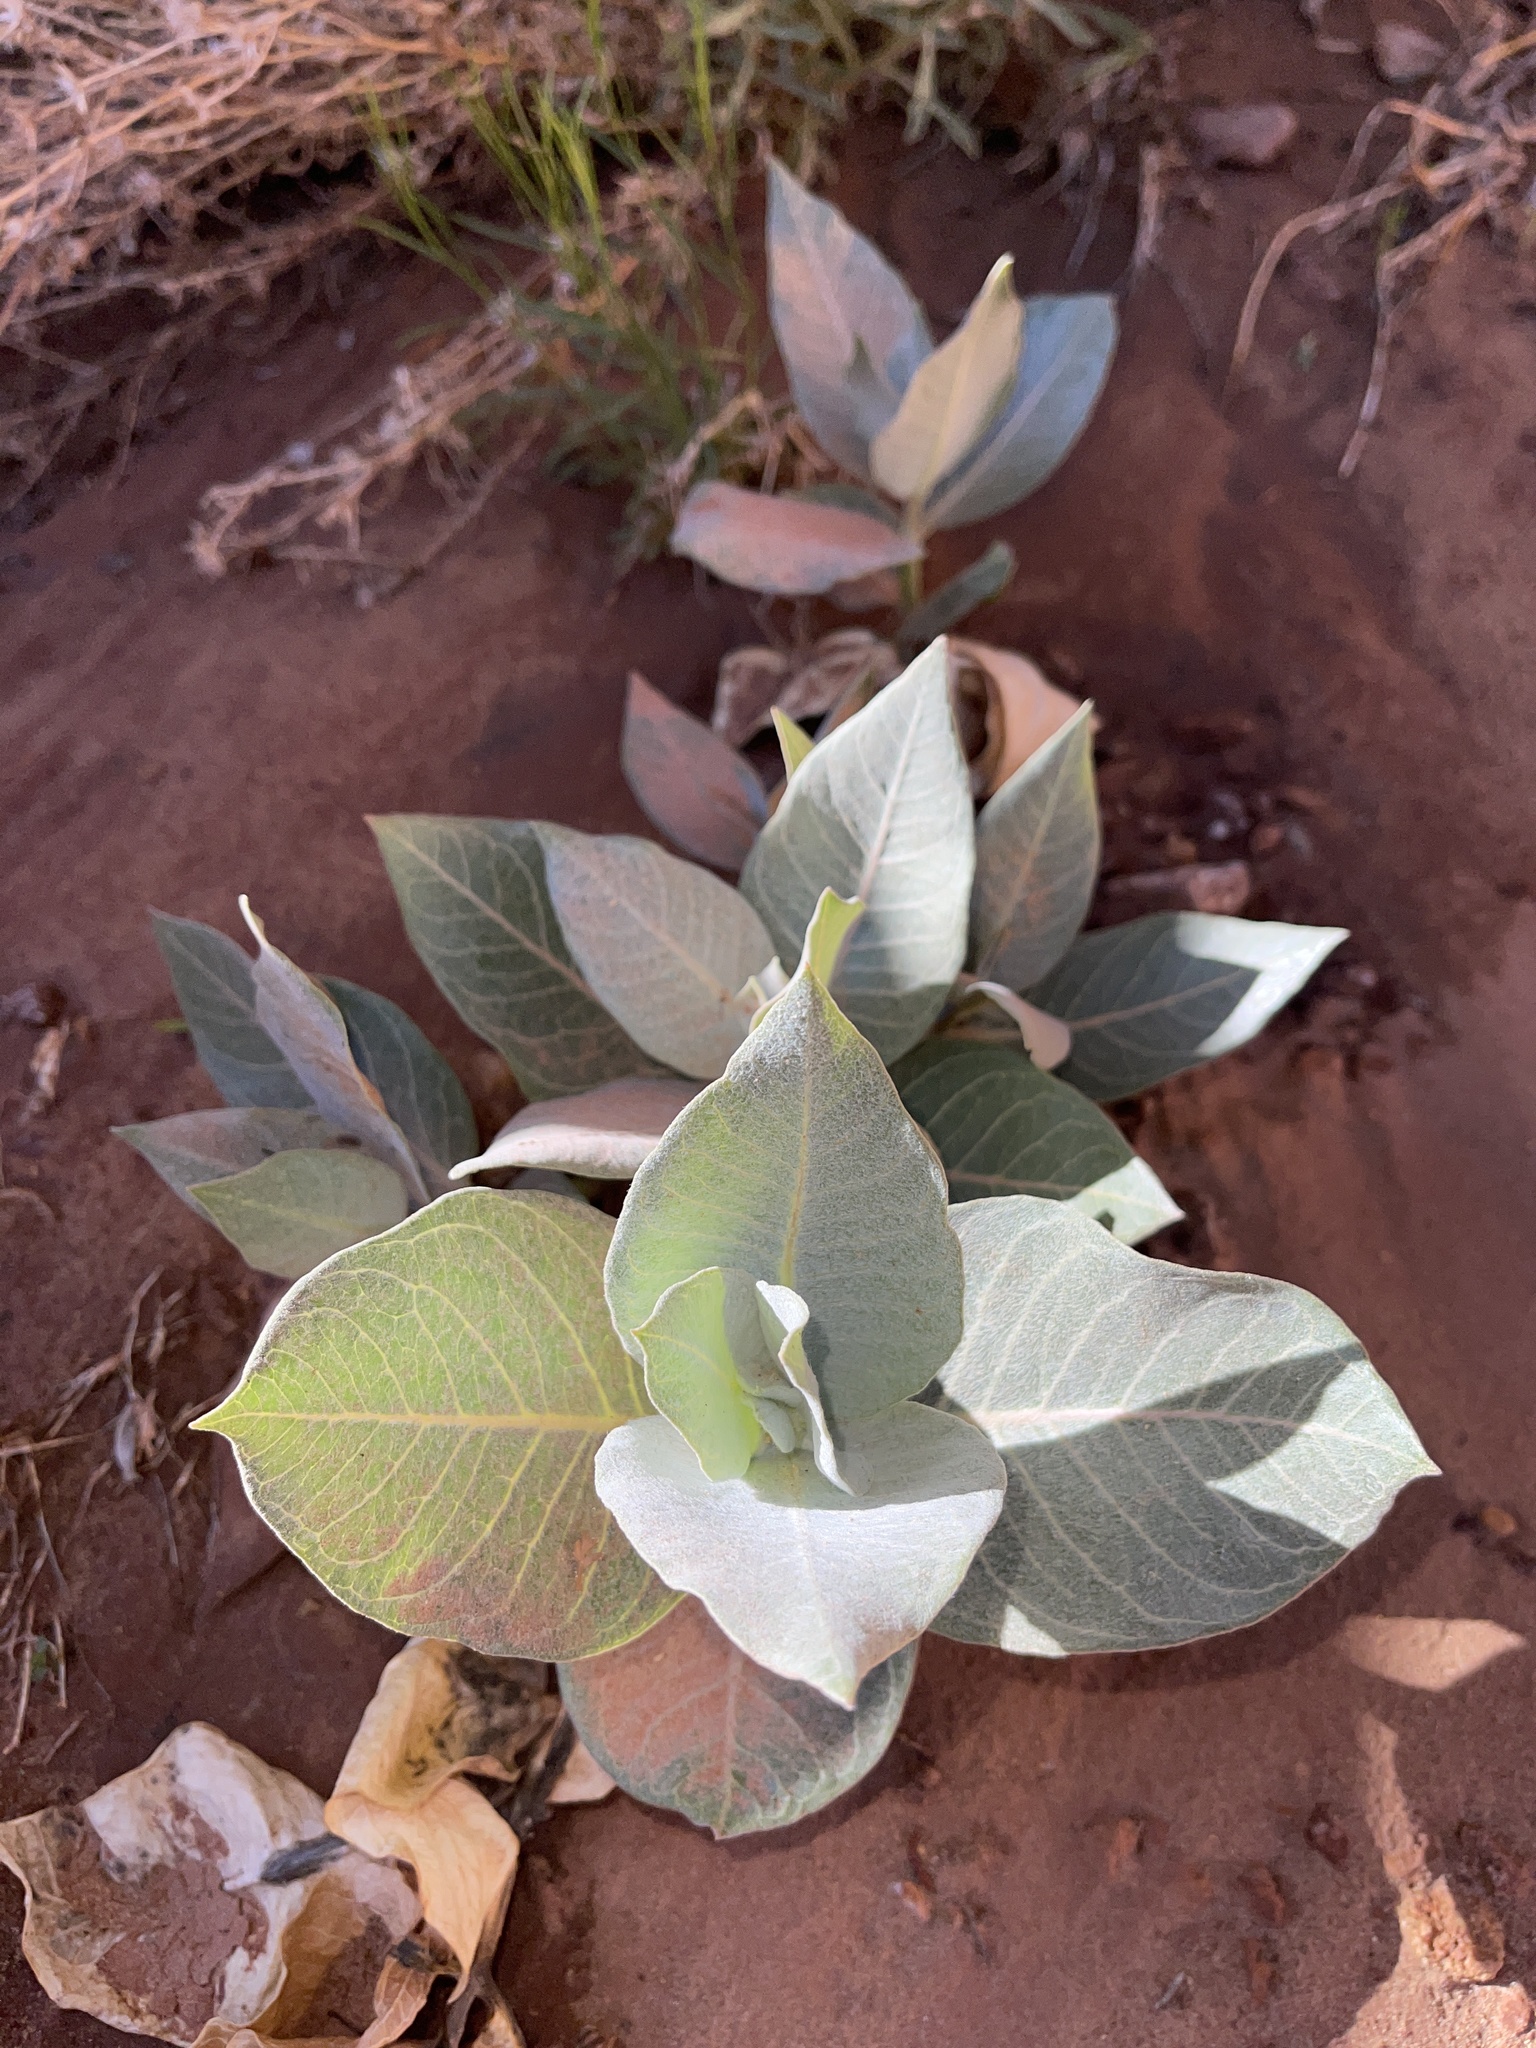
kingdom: Plantae
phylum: Tracheophyta
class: Magnoliopsida
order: Gentianales
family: Apocynaceae
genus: Asclepias
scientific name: Asclepias latifolia
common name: Broadleaf milkweed
